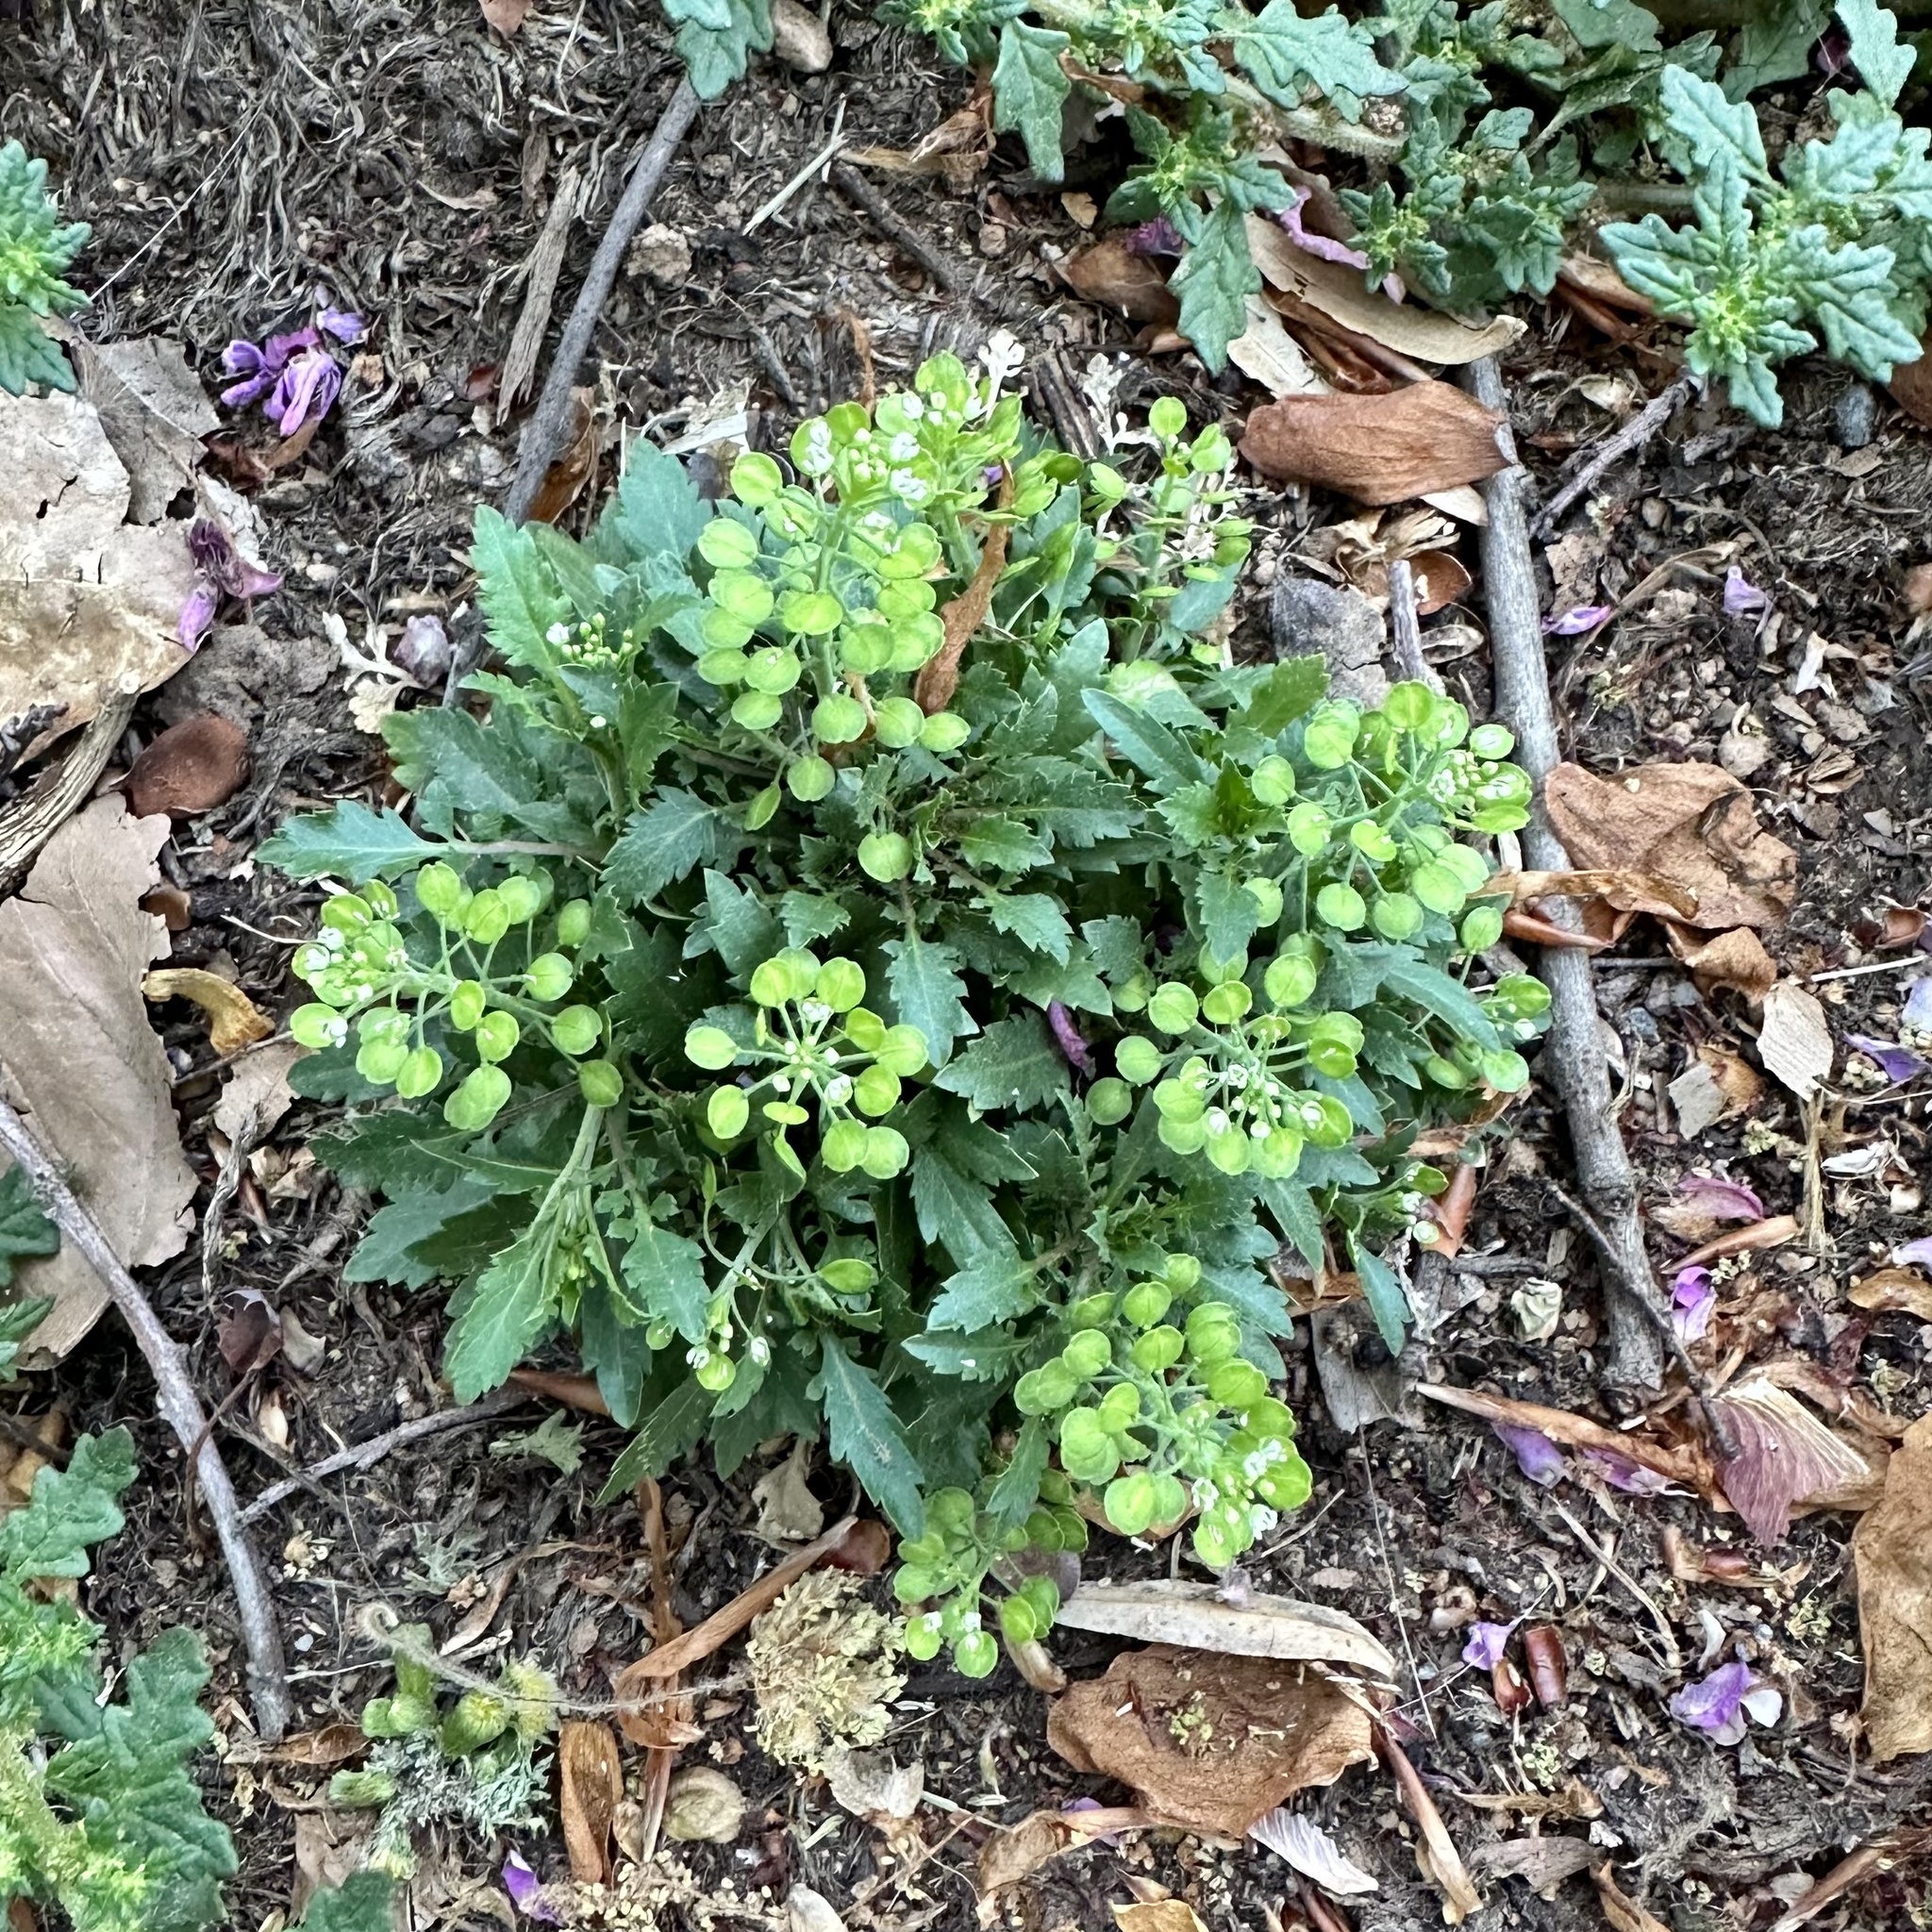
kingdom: Plantae
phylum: Tracheophyta
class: Magnoliopsida
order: Brassicales
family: Brassicaceae
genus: Lepidium
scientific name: Lepidium virginicum
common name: Least pepperwort
